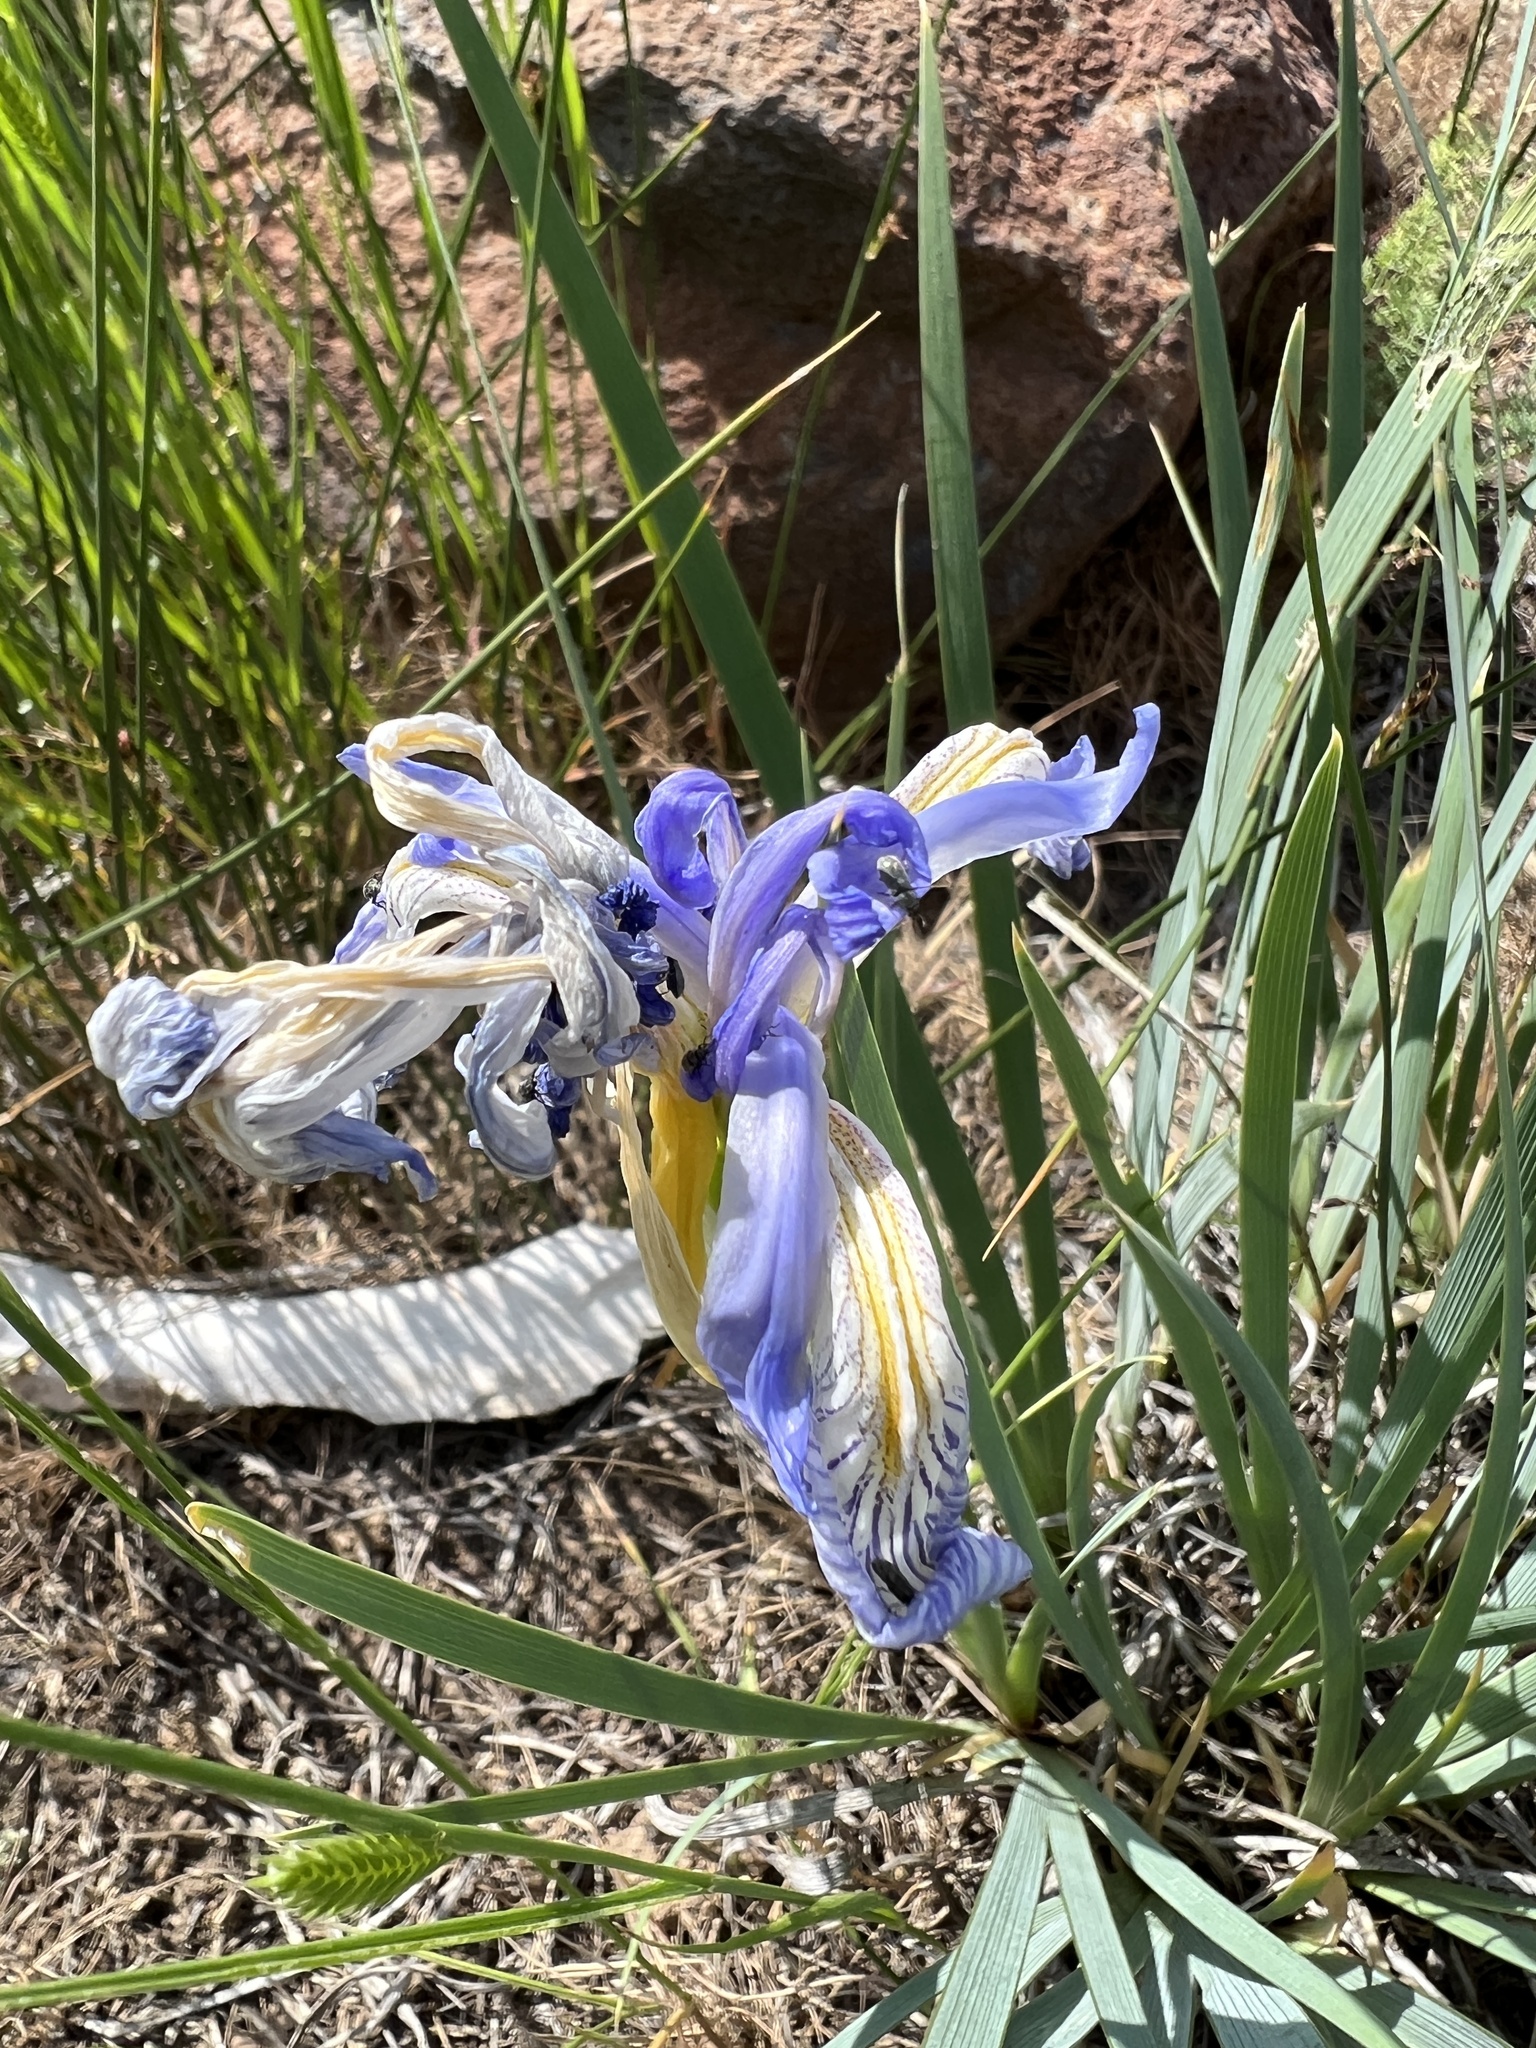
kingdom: Plantae
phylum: Tracheophyta
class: Liliopsida
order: Asparagales
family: Iridaceae
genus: Iris
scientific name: Iris missouriensis
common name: Rocky mountain iris
